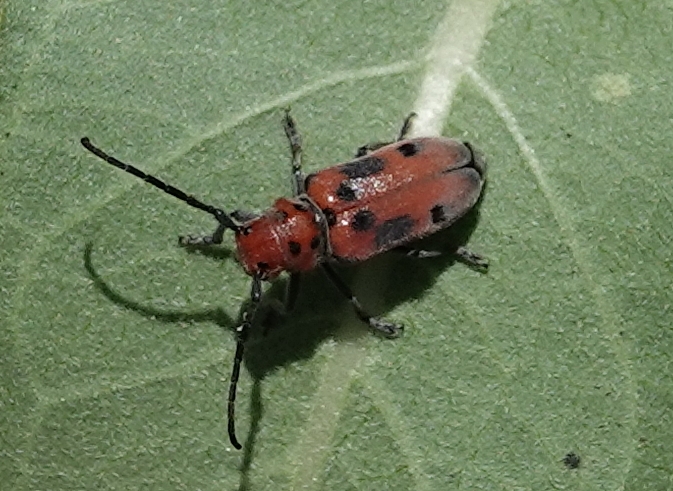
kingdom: Animalia
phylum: Arthropoda
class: Insecta
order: Coleoptera
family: Cerambycidae
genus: Tetraopes
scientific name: Tetraopes tetrophthalmus
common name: Red milkweed beetle
